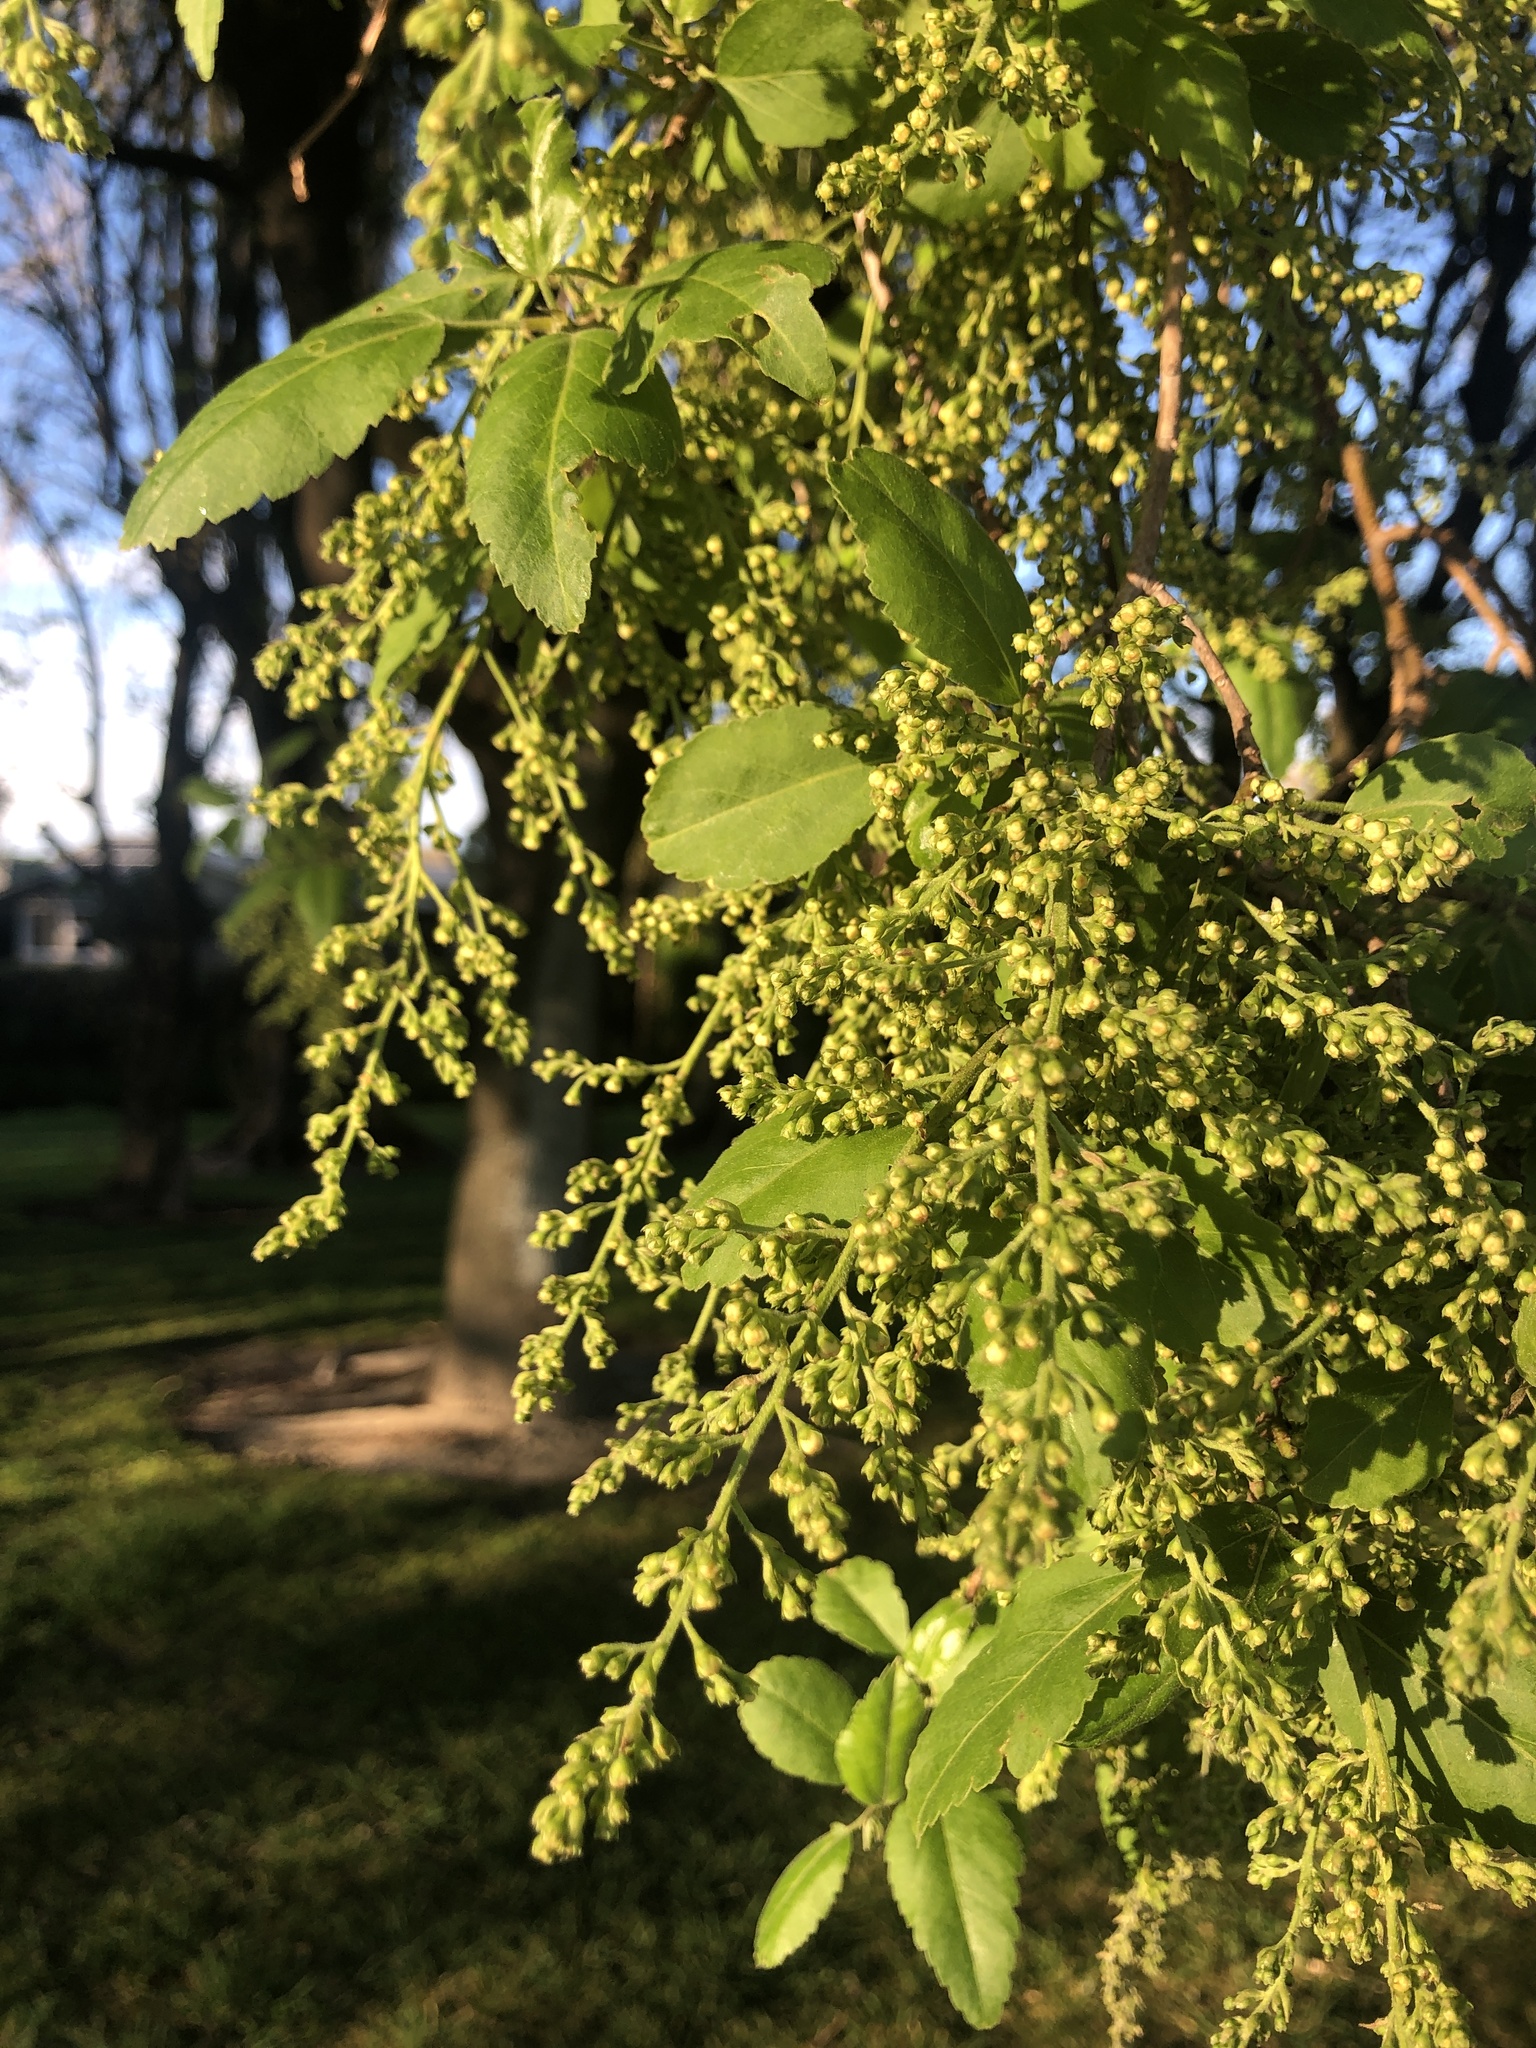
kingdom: Plantae
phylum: Tracheophyta
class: Magnoliopsida
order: Malvales
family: Malvaceae
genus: Plagianthus
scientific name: Plagianthus regius
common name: Manatu
